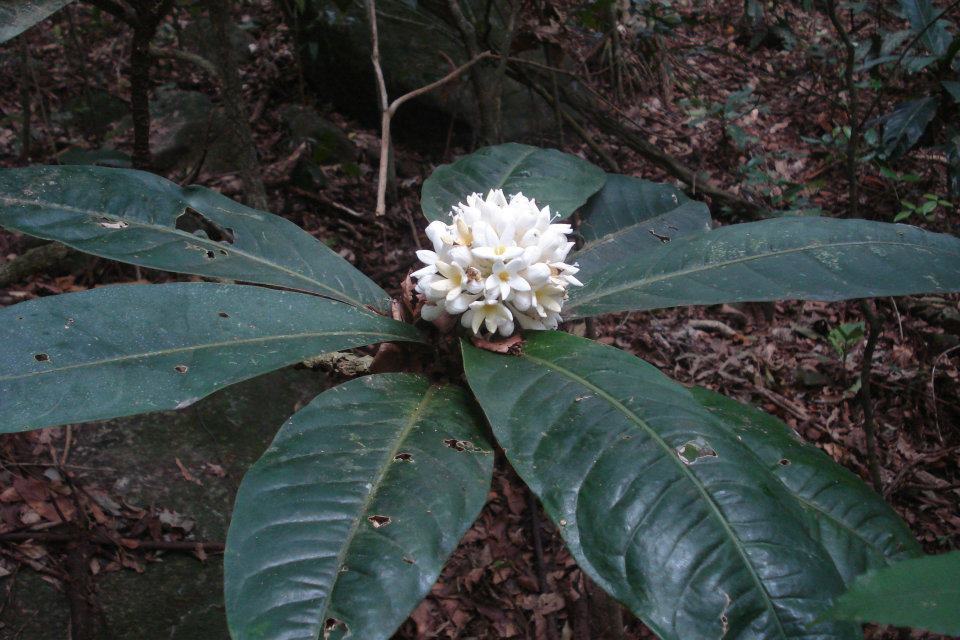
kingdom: Plantae
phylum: Tracheophyta
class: Magnoliopsida
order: Gentianales
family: Rubiaceae
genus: Rudgea
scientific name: Rudgea macrophylla
